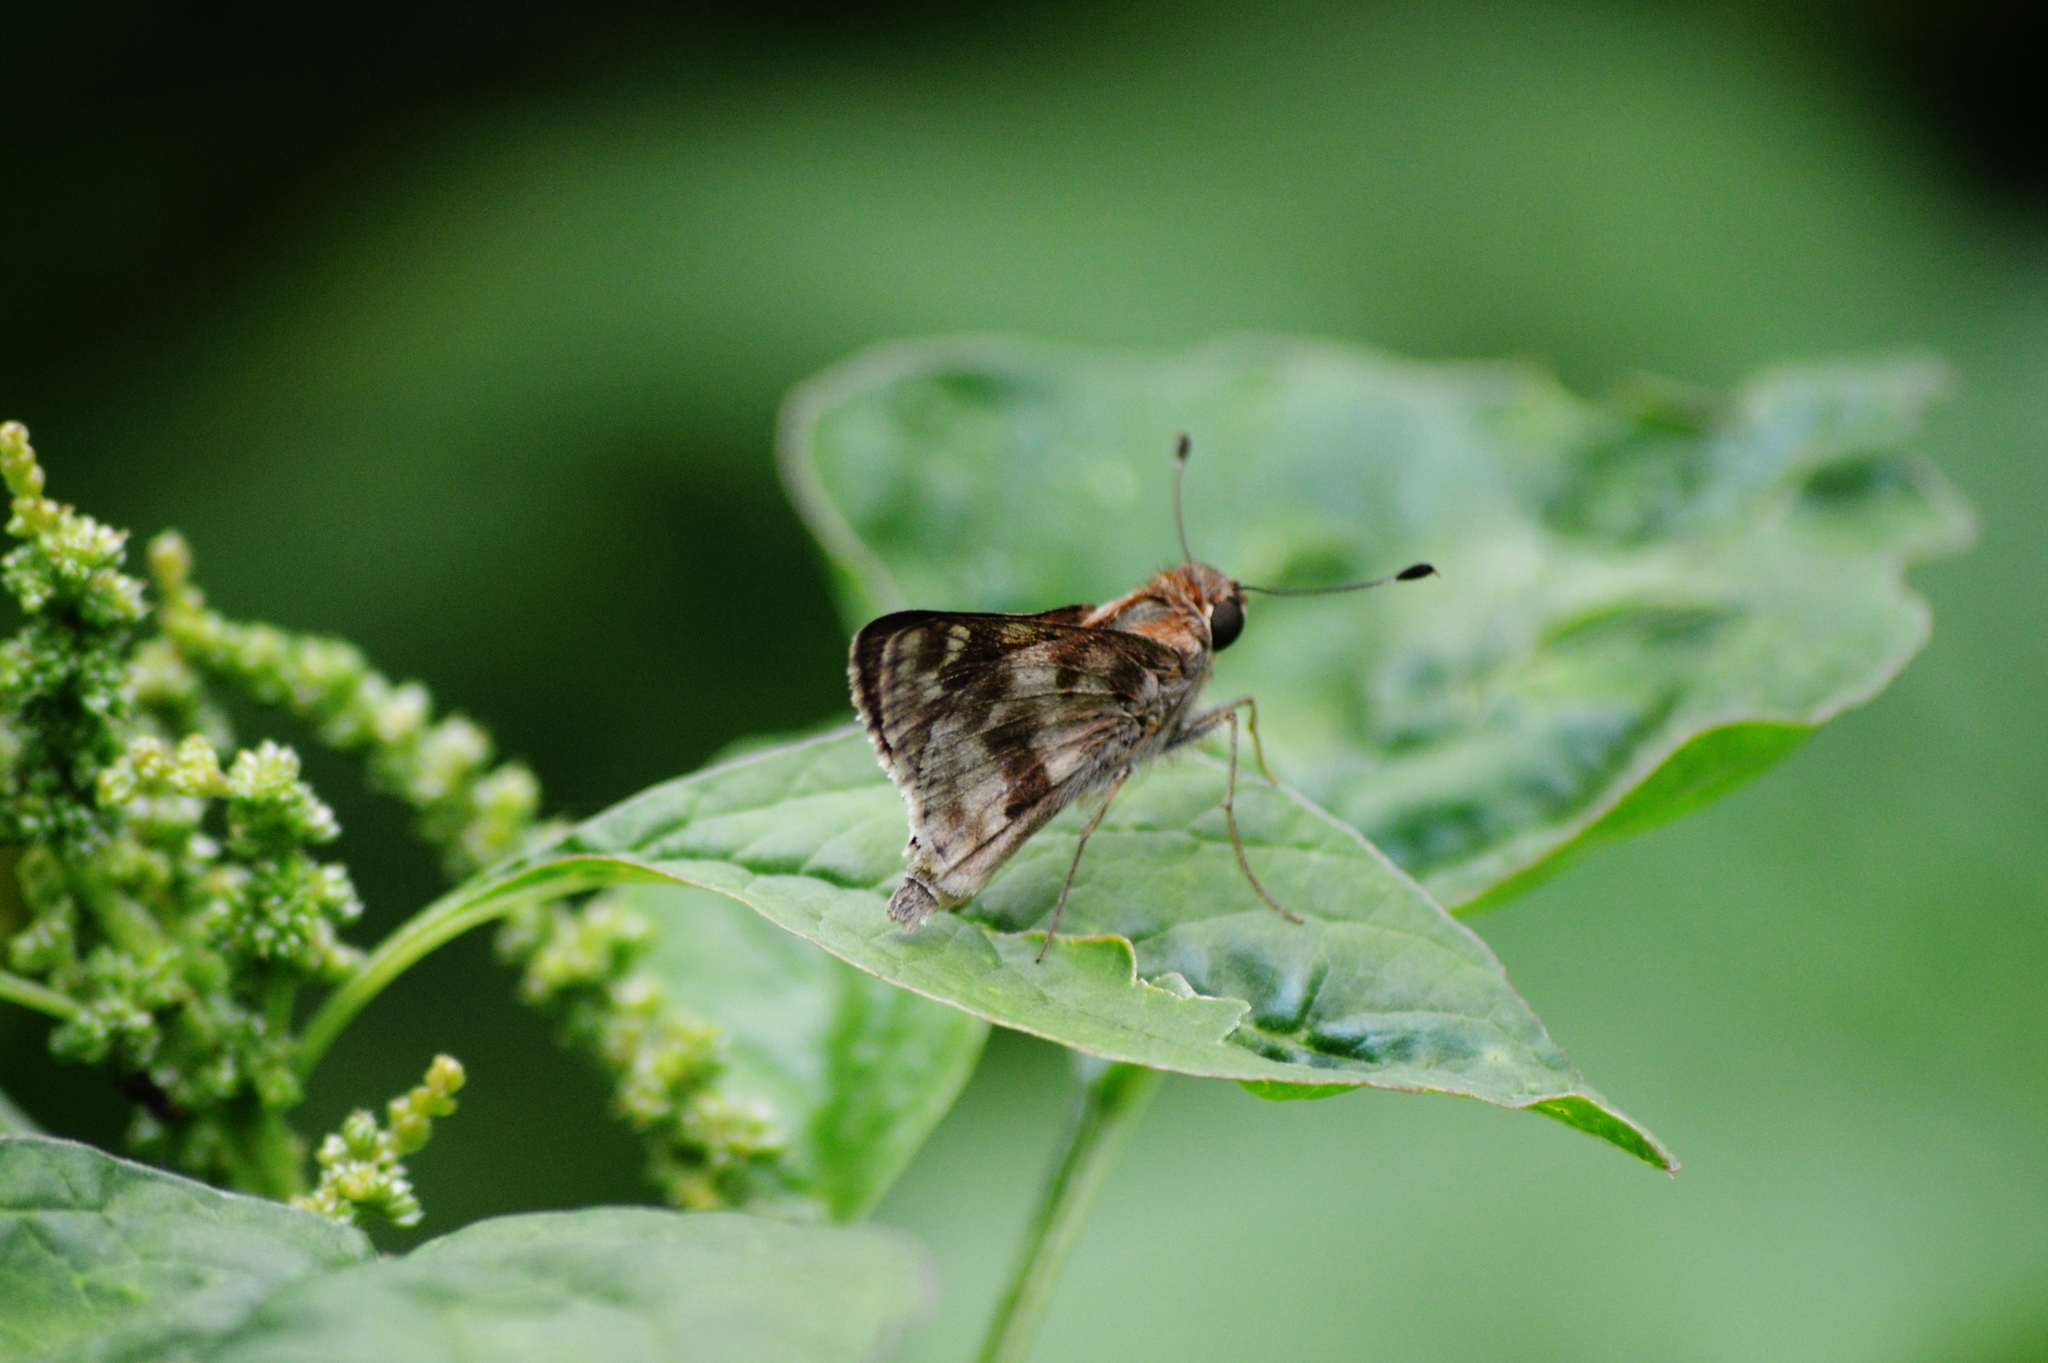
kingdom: Animalia
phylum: Arthropoda
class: Insecta
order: Lepidoptera
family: Hesperiidae
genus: Pompeius
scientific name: Pompeius pompeius
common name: Pompeius skipper
